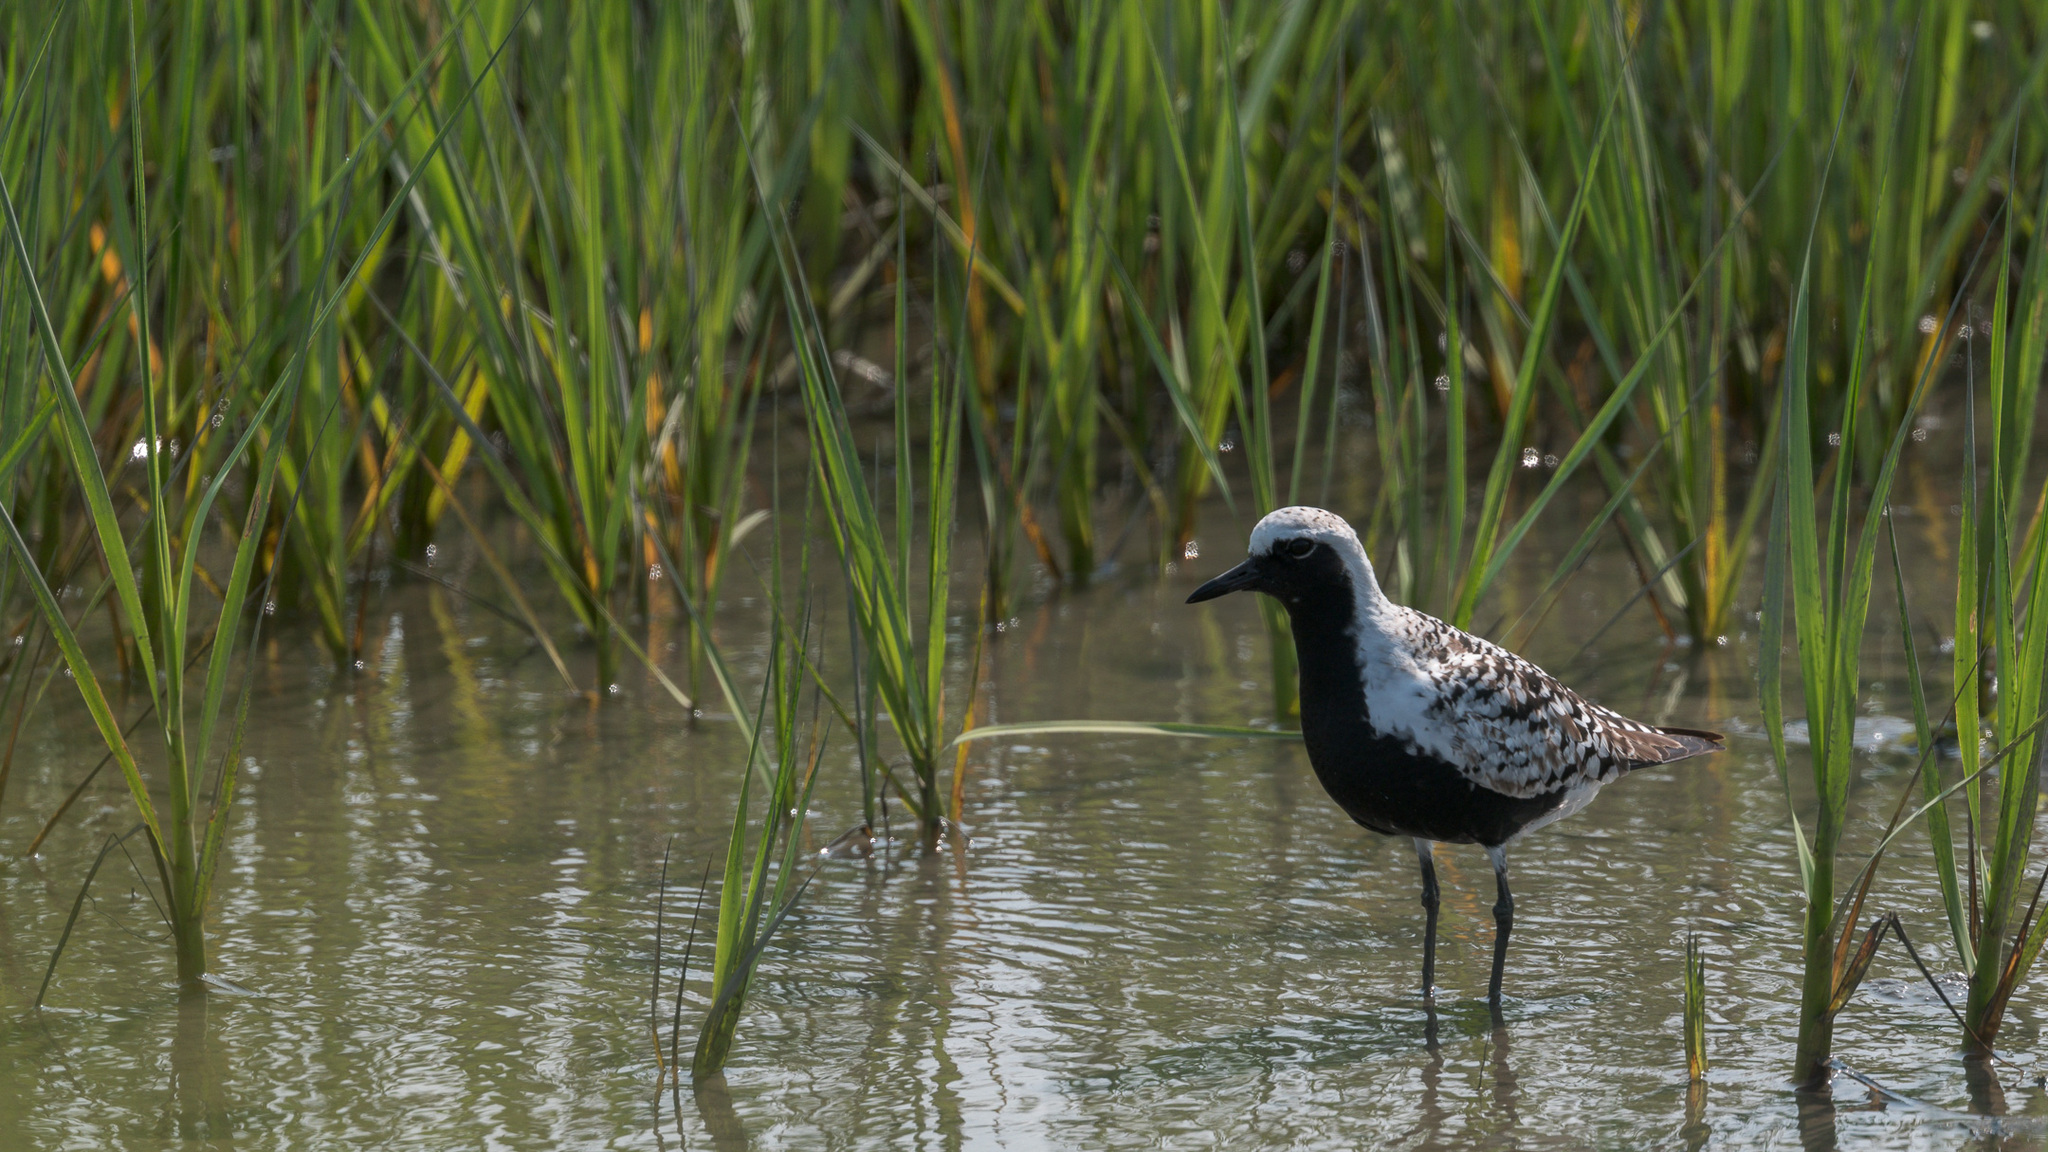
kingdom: Animalia
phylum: Chordata
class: Aves
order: Charadriiformes
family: Charadriidae
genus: Pluvialis
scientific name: Pluvialis squatarola
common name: Grey plover
